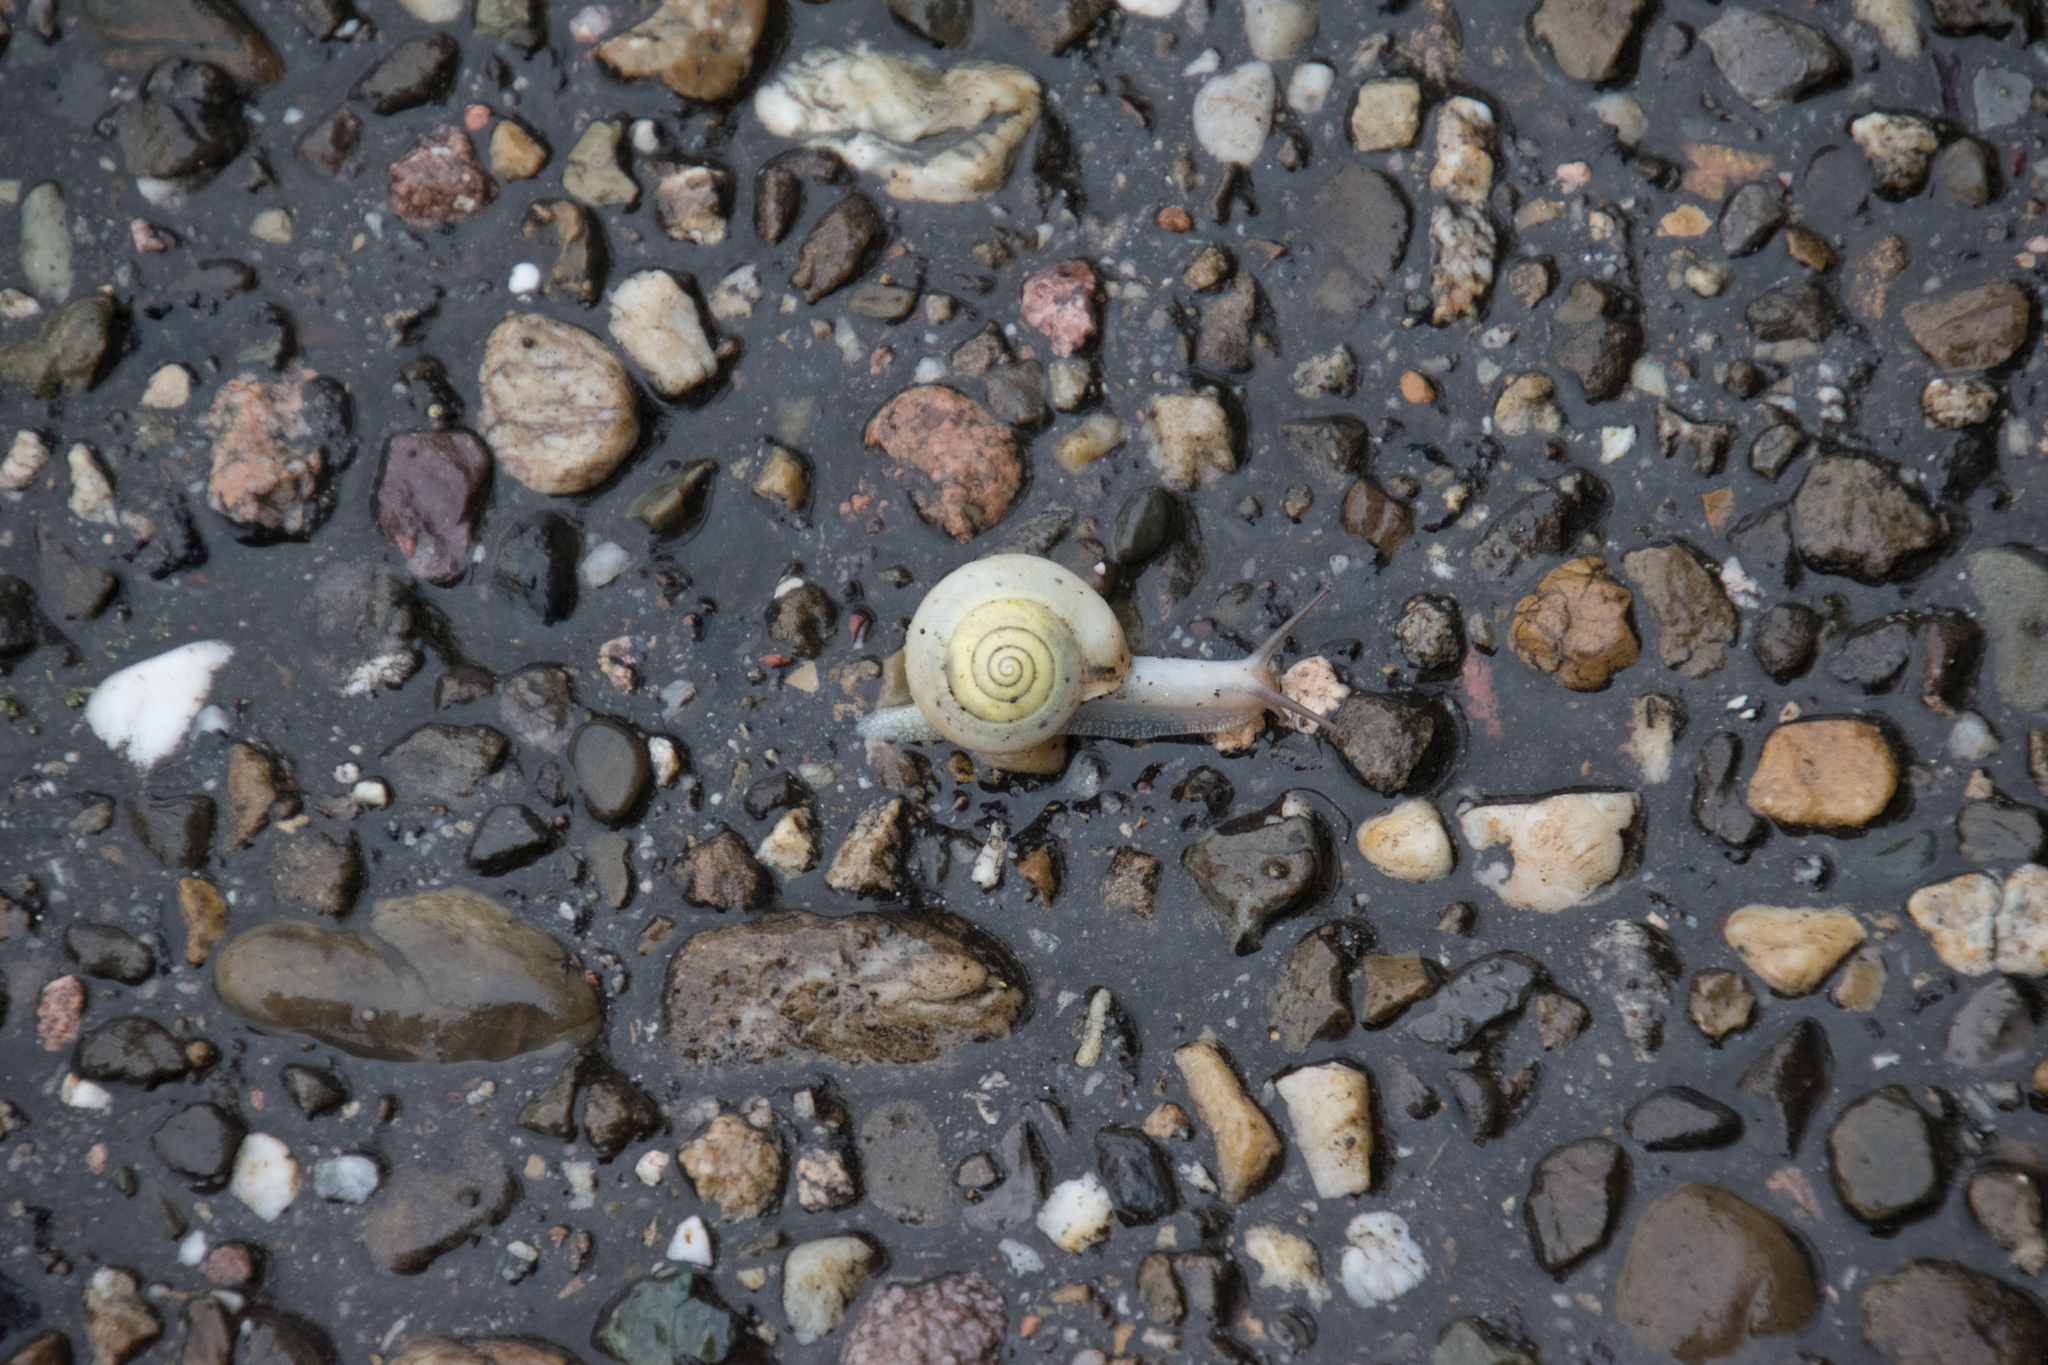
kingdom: Animalia
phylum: Mollusca
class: Gastropoda
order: Stylommatophora
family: Camaenidae
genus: Fruticicola
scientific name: Fruticicola fruticum
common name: Bush snail
